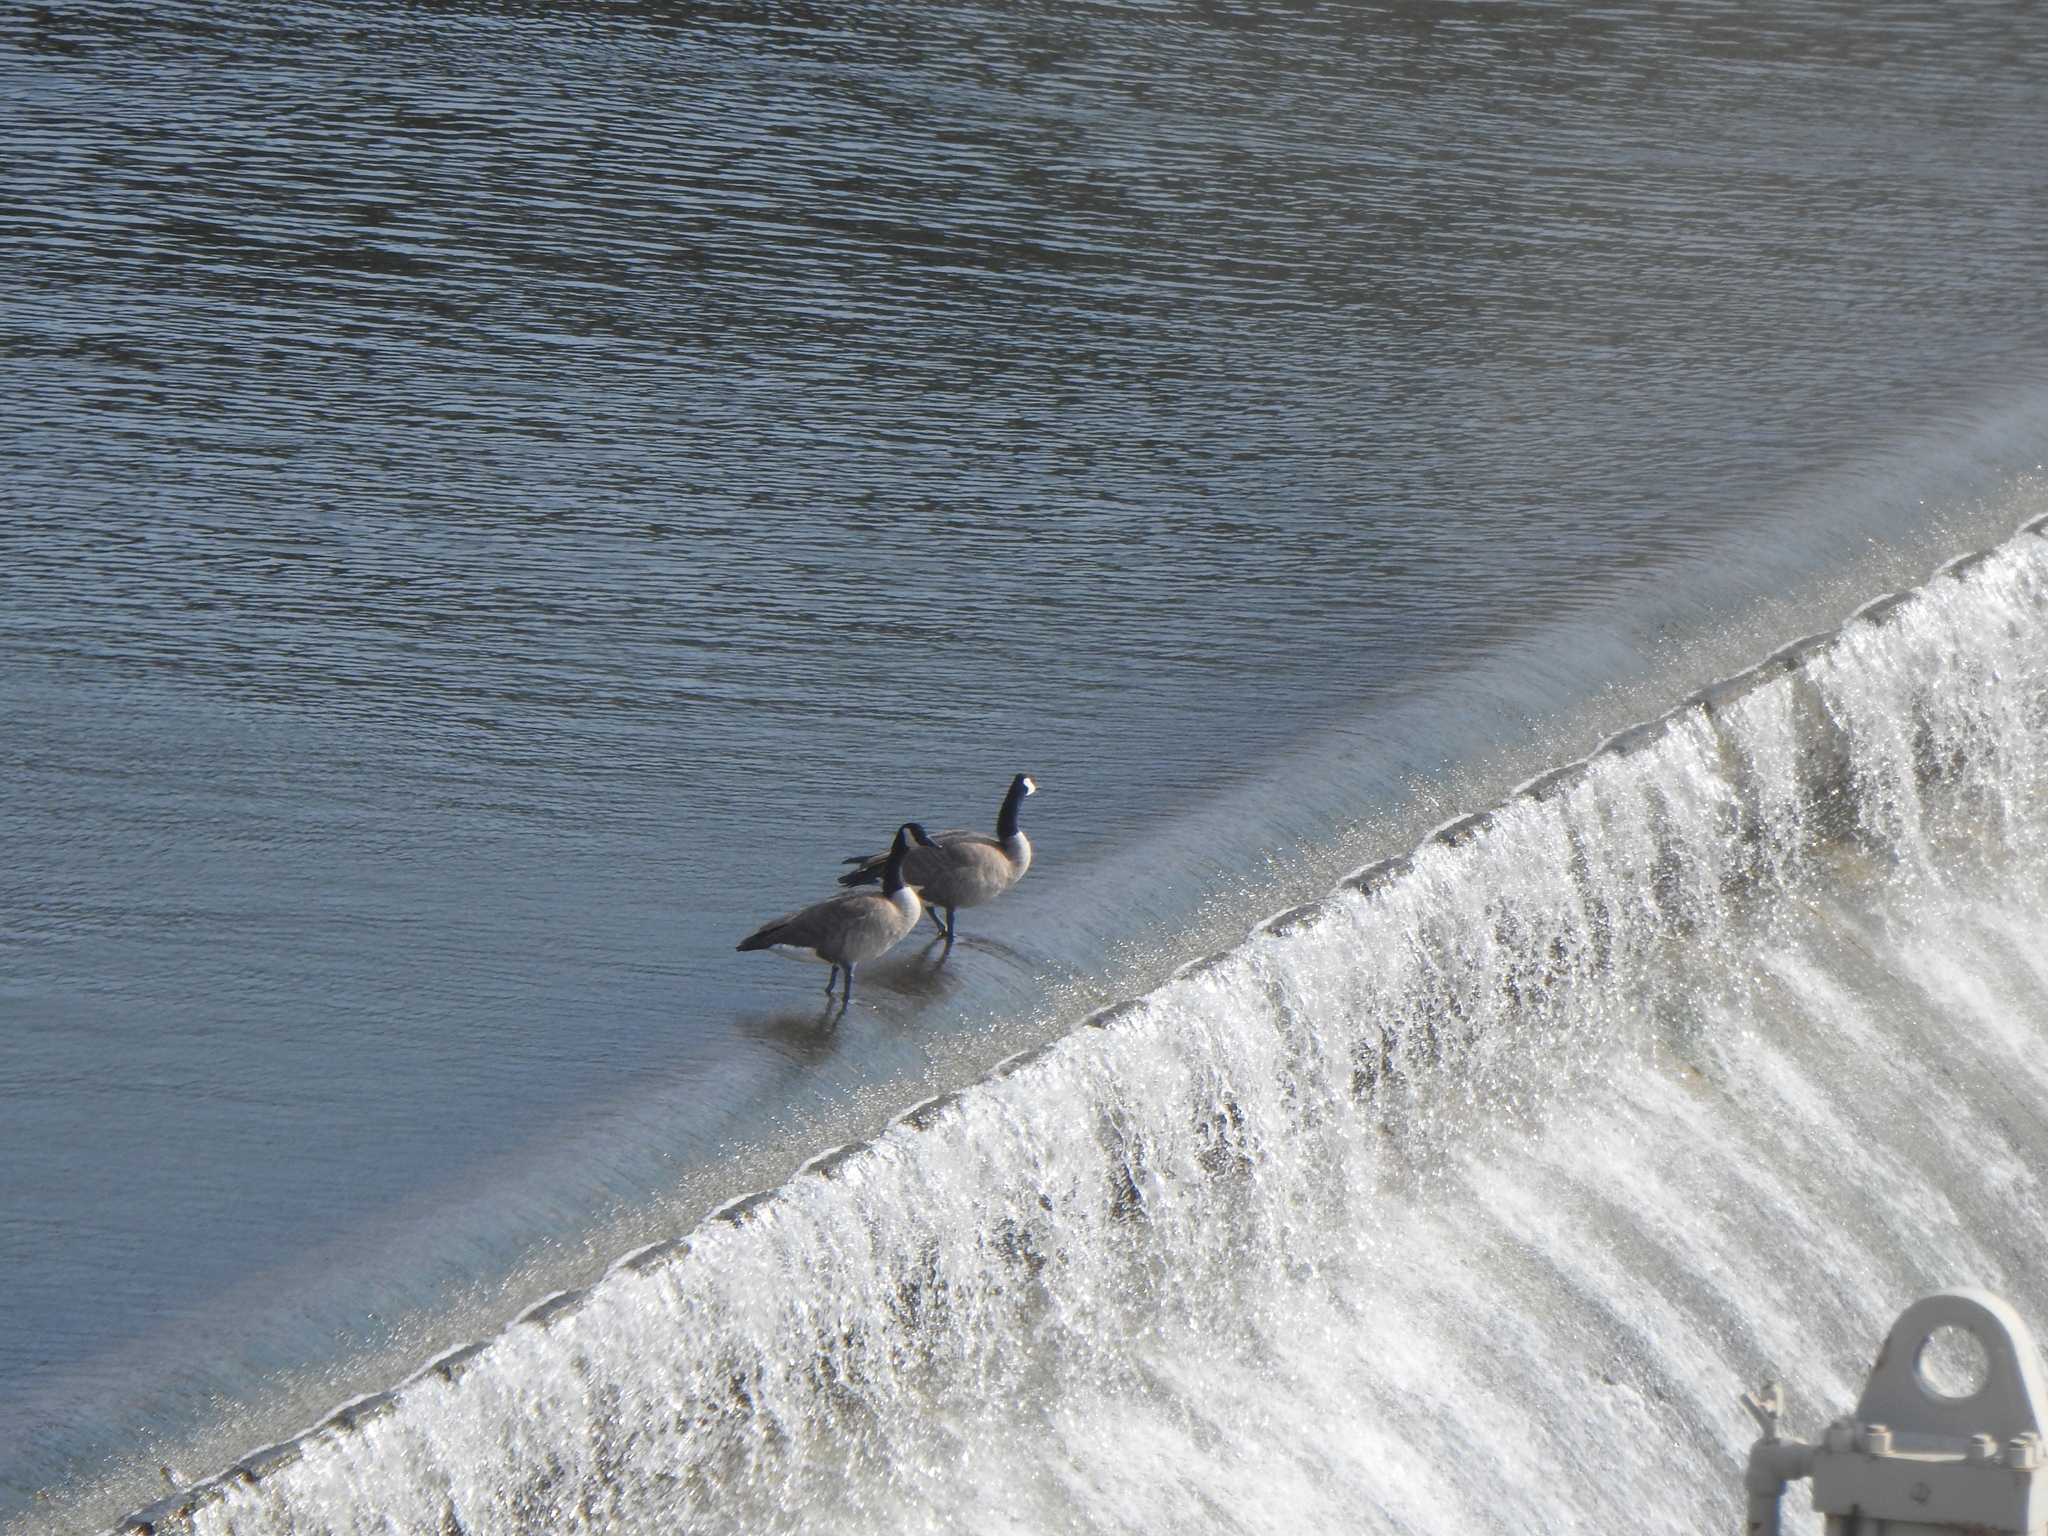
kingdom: Animalia
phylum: Chordata
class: Aves
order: Anseriformes
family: Anatidae
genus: Branta
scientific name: Branta canadensis
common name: Canada goose
